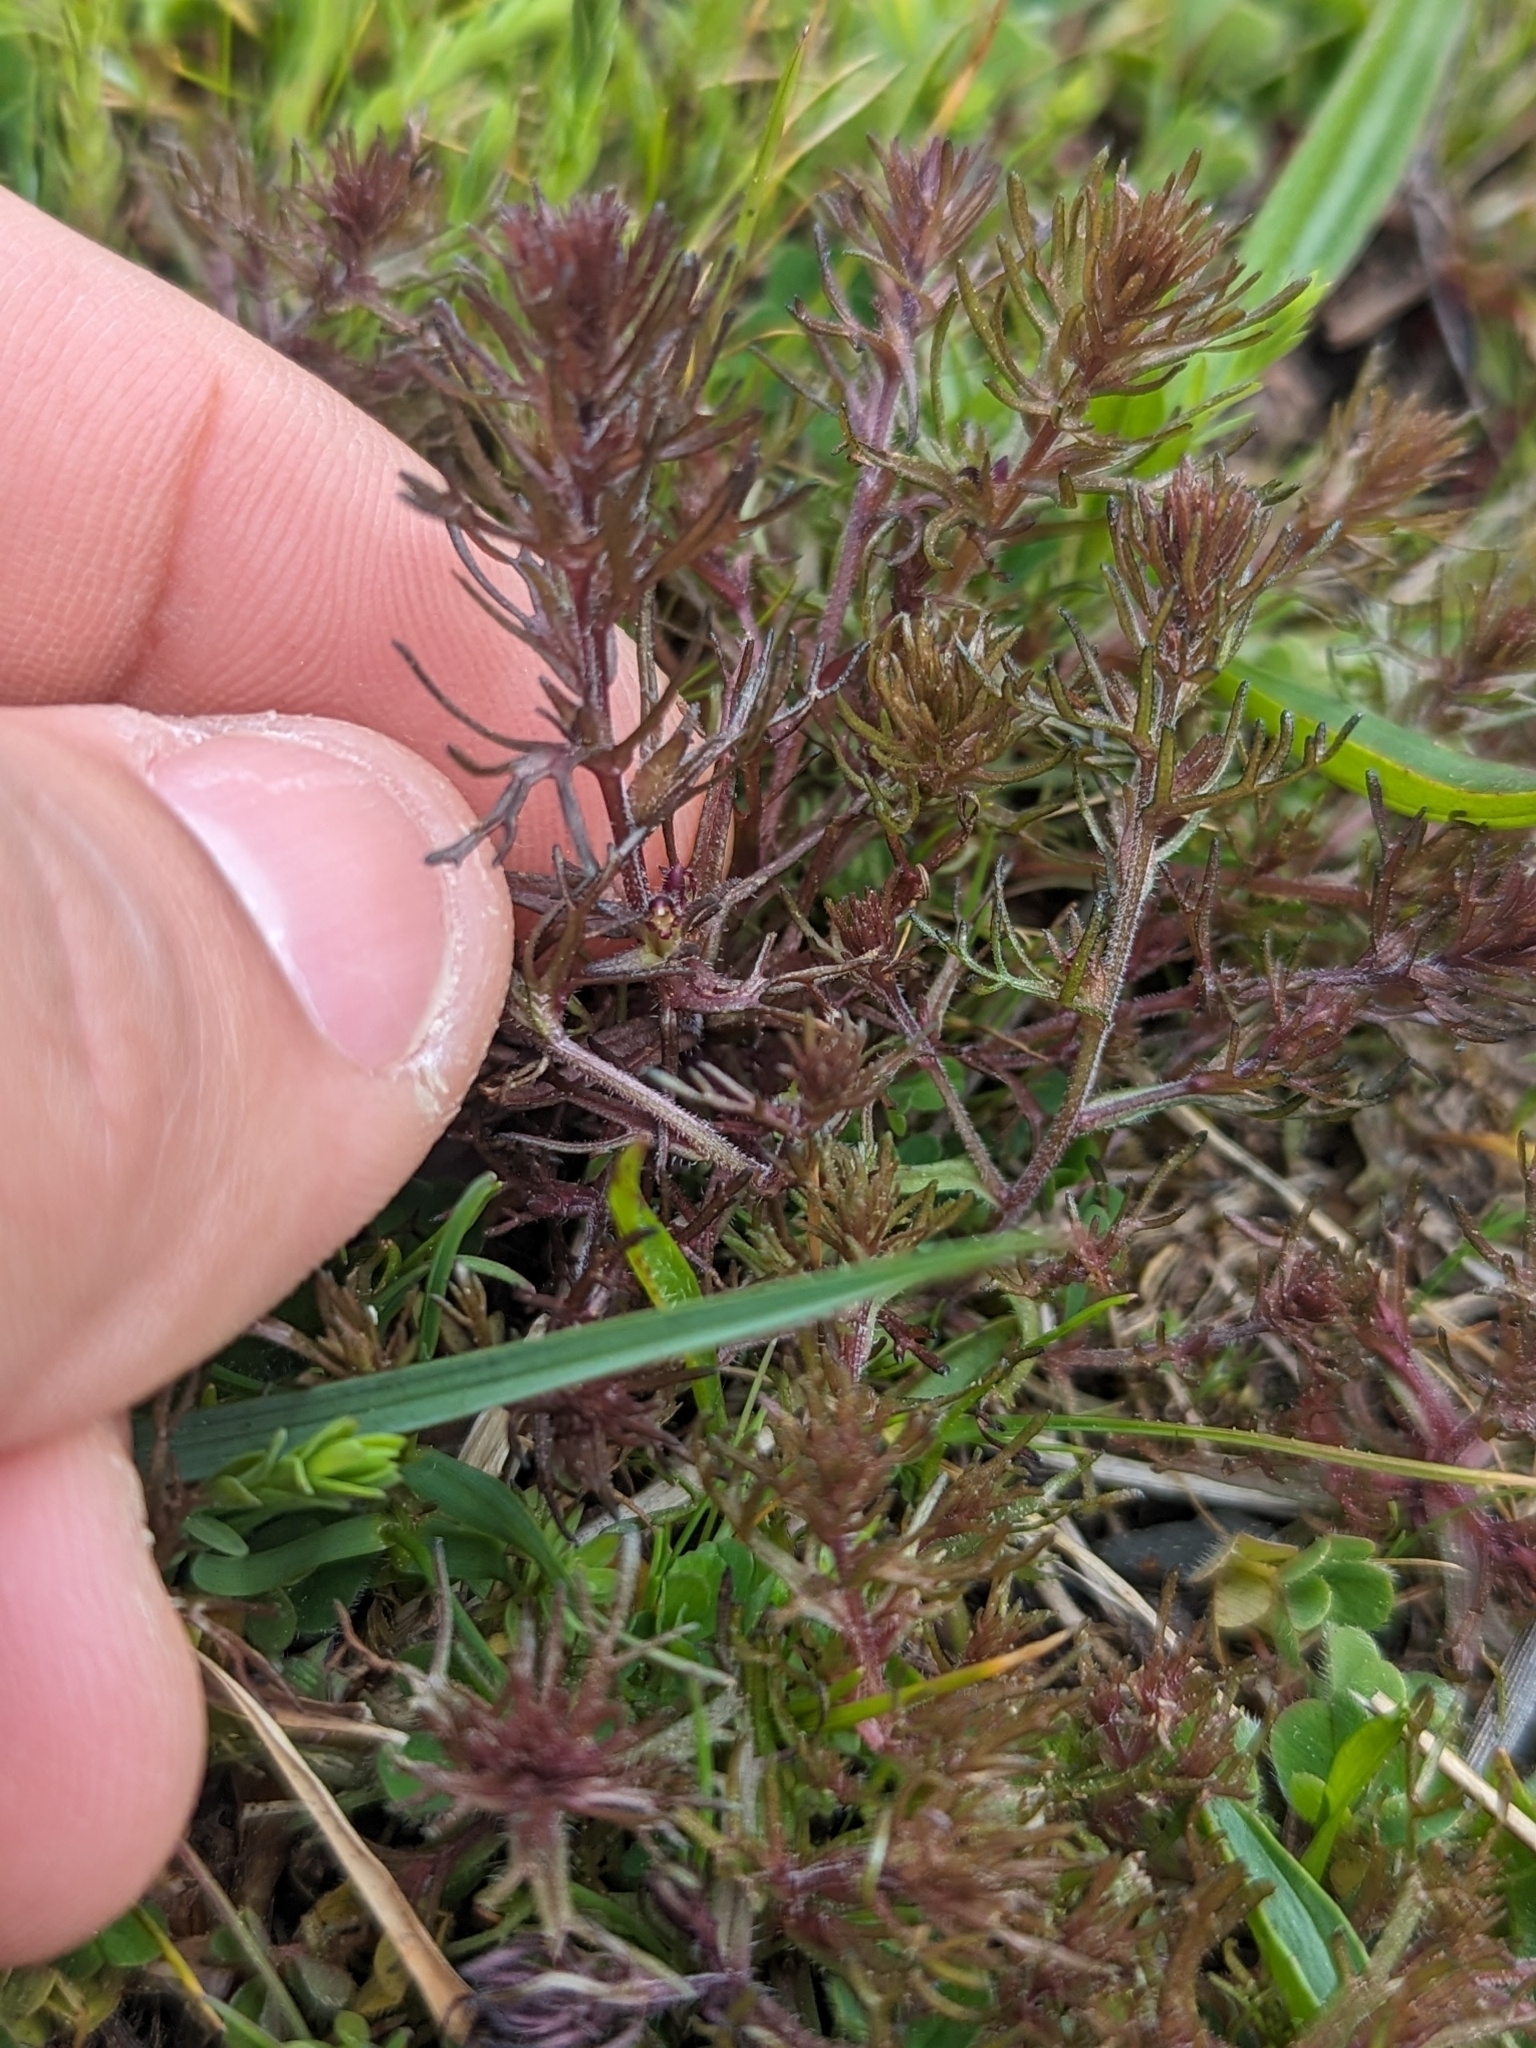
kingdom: Plantae
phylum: Tracheophyta
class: Magnoliopsida
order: Lamiales
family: Orobanchaceae
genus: Triphysaria
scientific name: Triphysaria pusilla
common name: Dwarf false owl-clover
